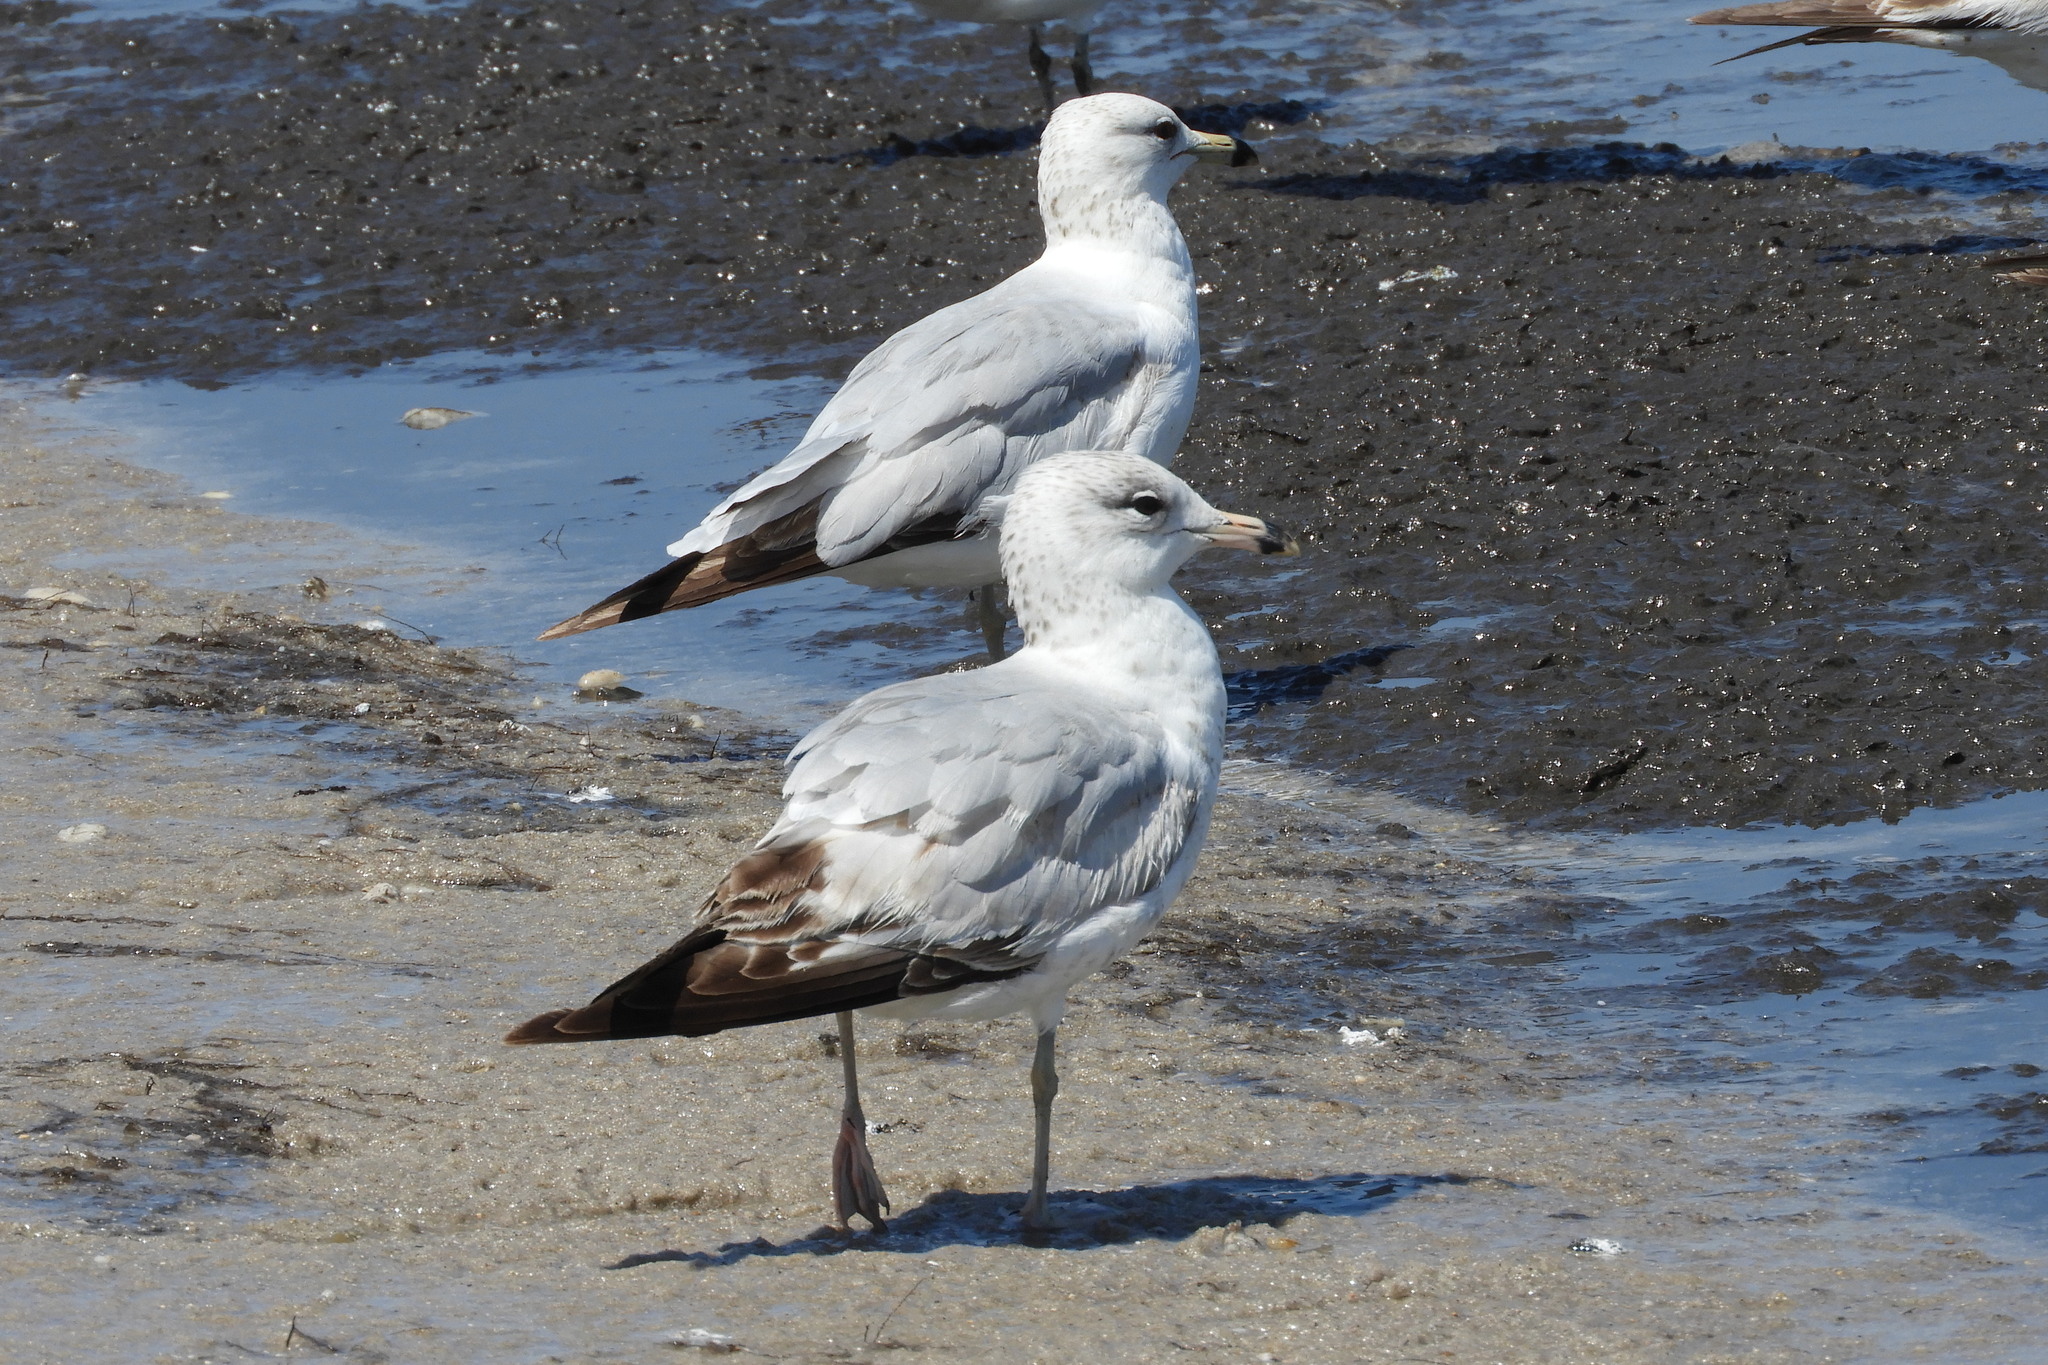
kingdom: Animalia
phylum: Chordata
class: Aves
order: Charadriiformes
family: Laridae
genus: Larus
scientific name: Larus delawarensis
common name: Ring-billed gull
